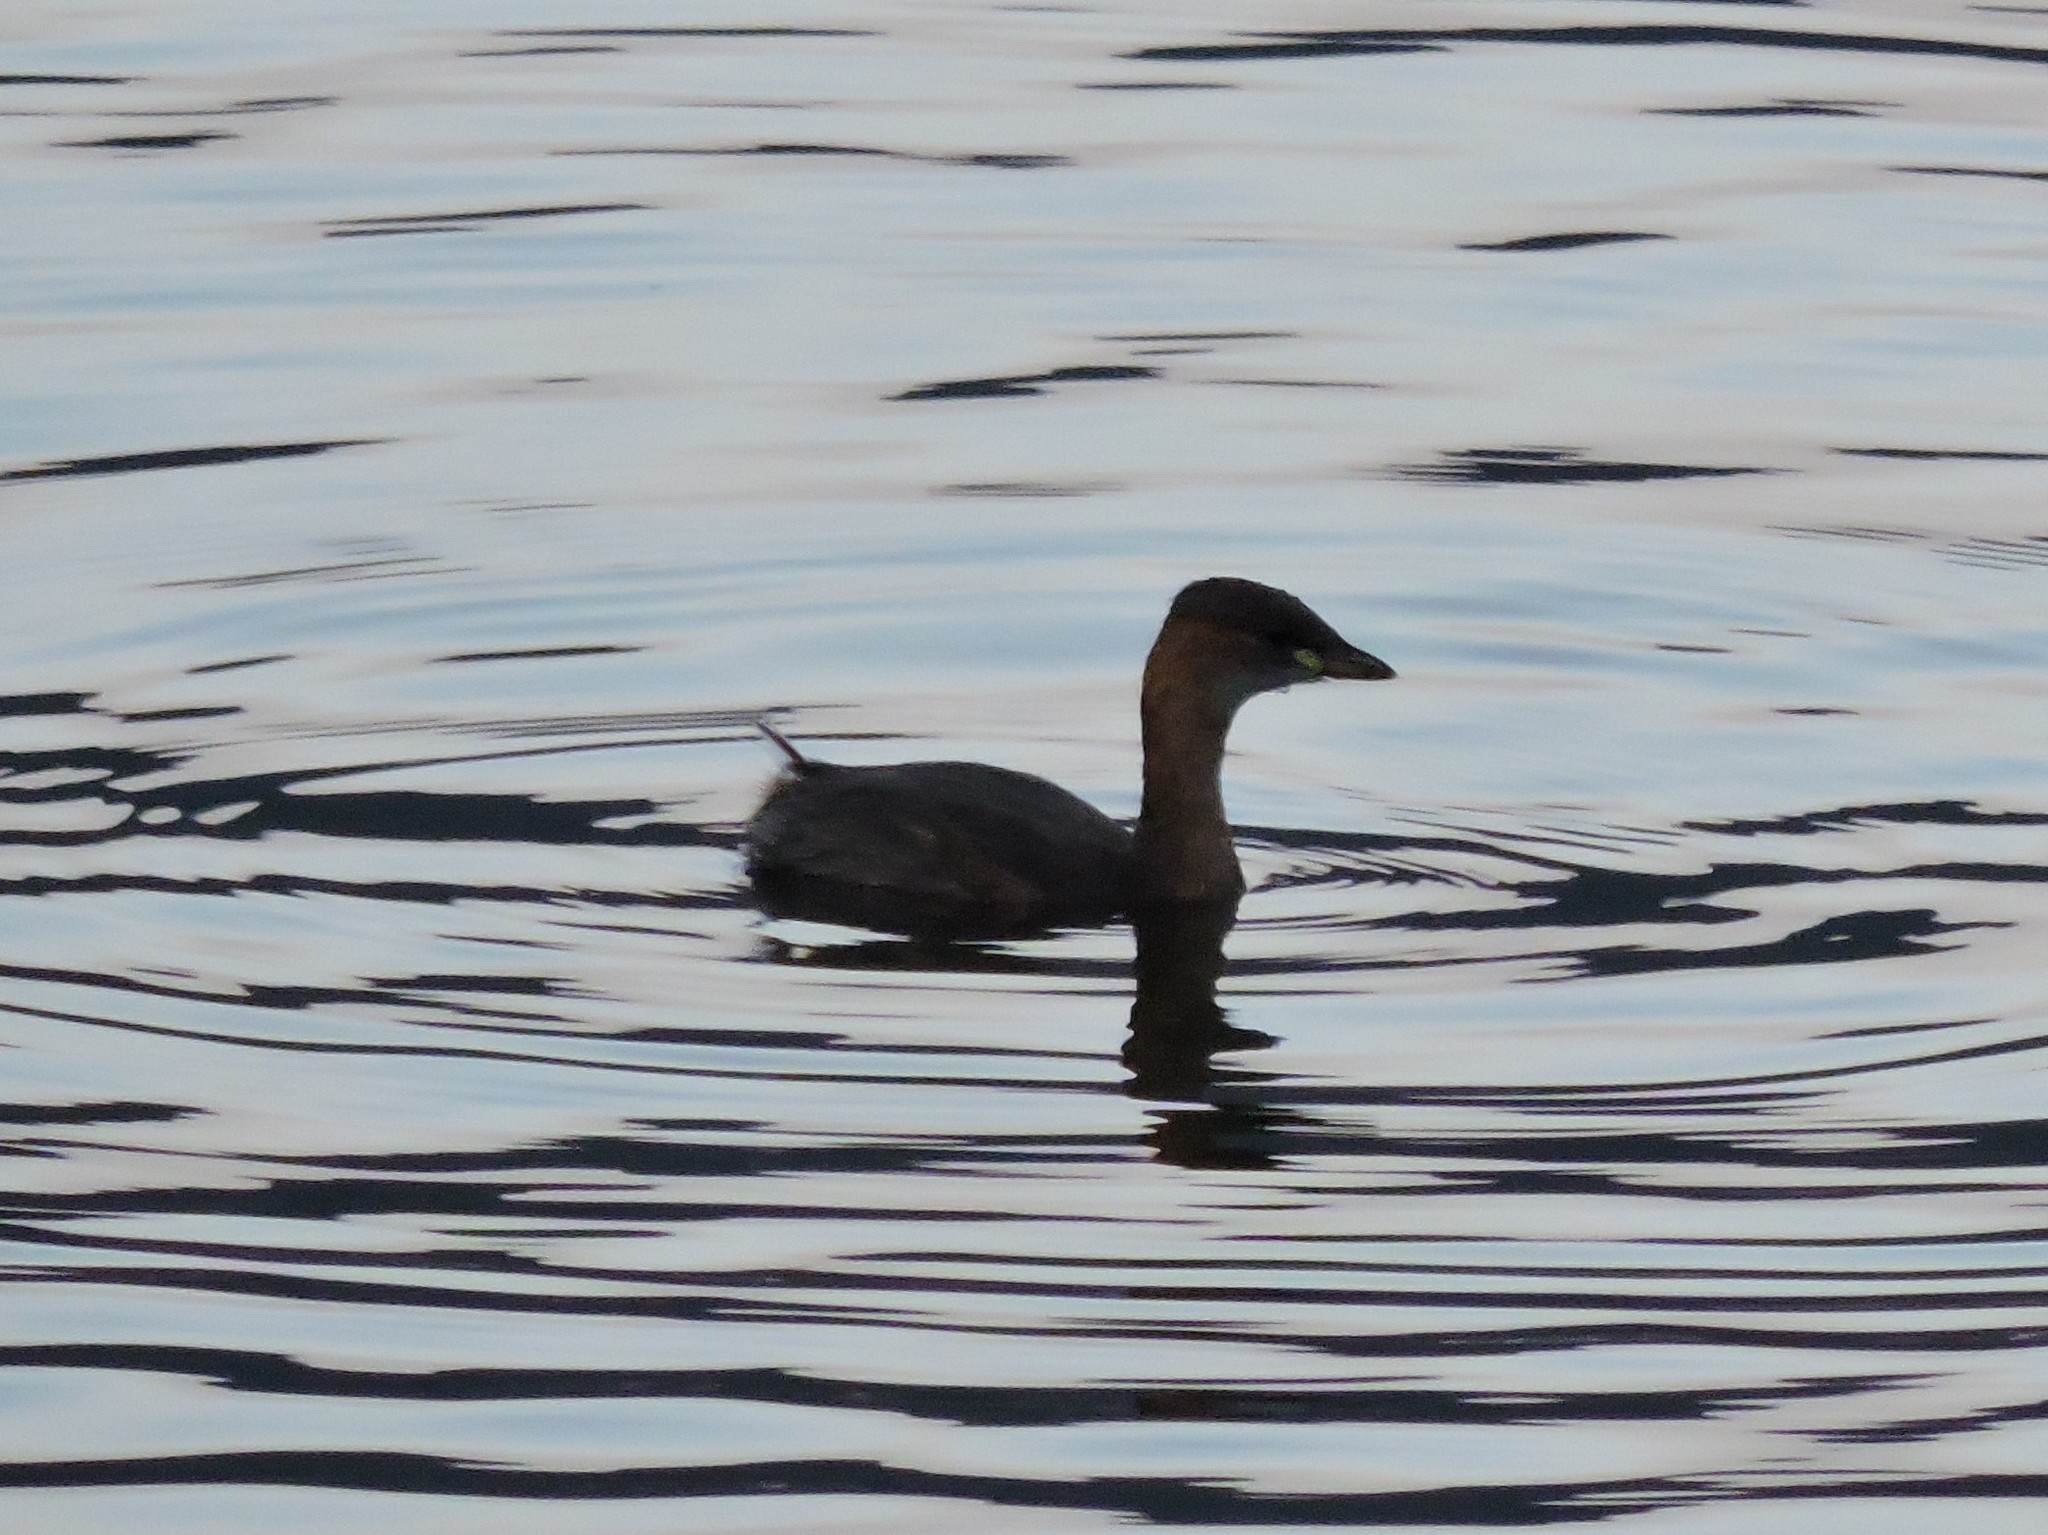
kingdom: Animalia
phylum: Chordata
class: Aves
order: Podicipediformes
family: Podicipedidae
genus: Tachybaptus
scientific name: Tachybaptus ruficollis
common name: Little grebe
